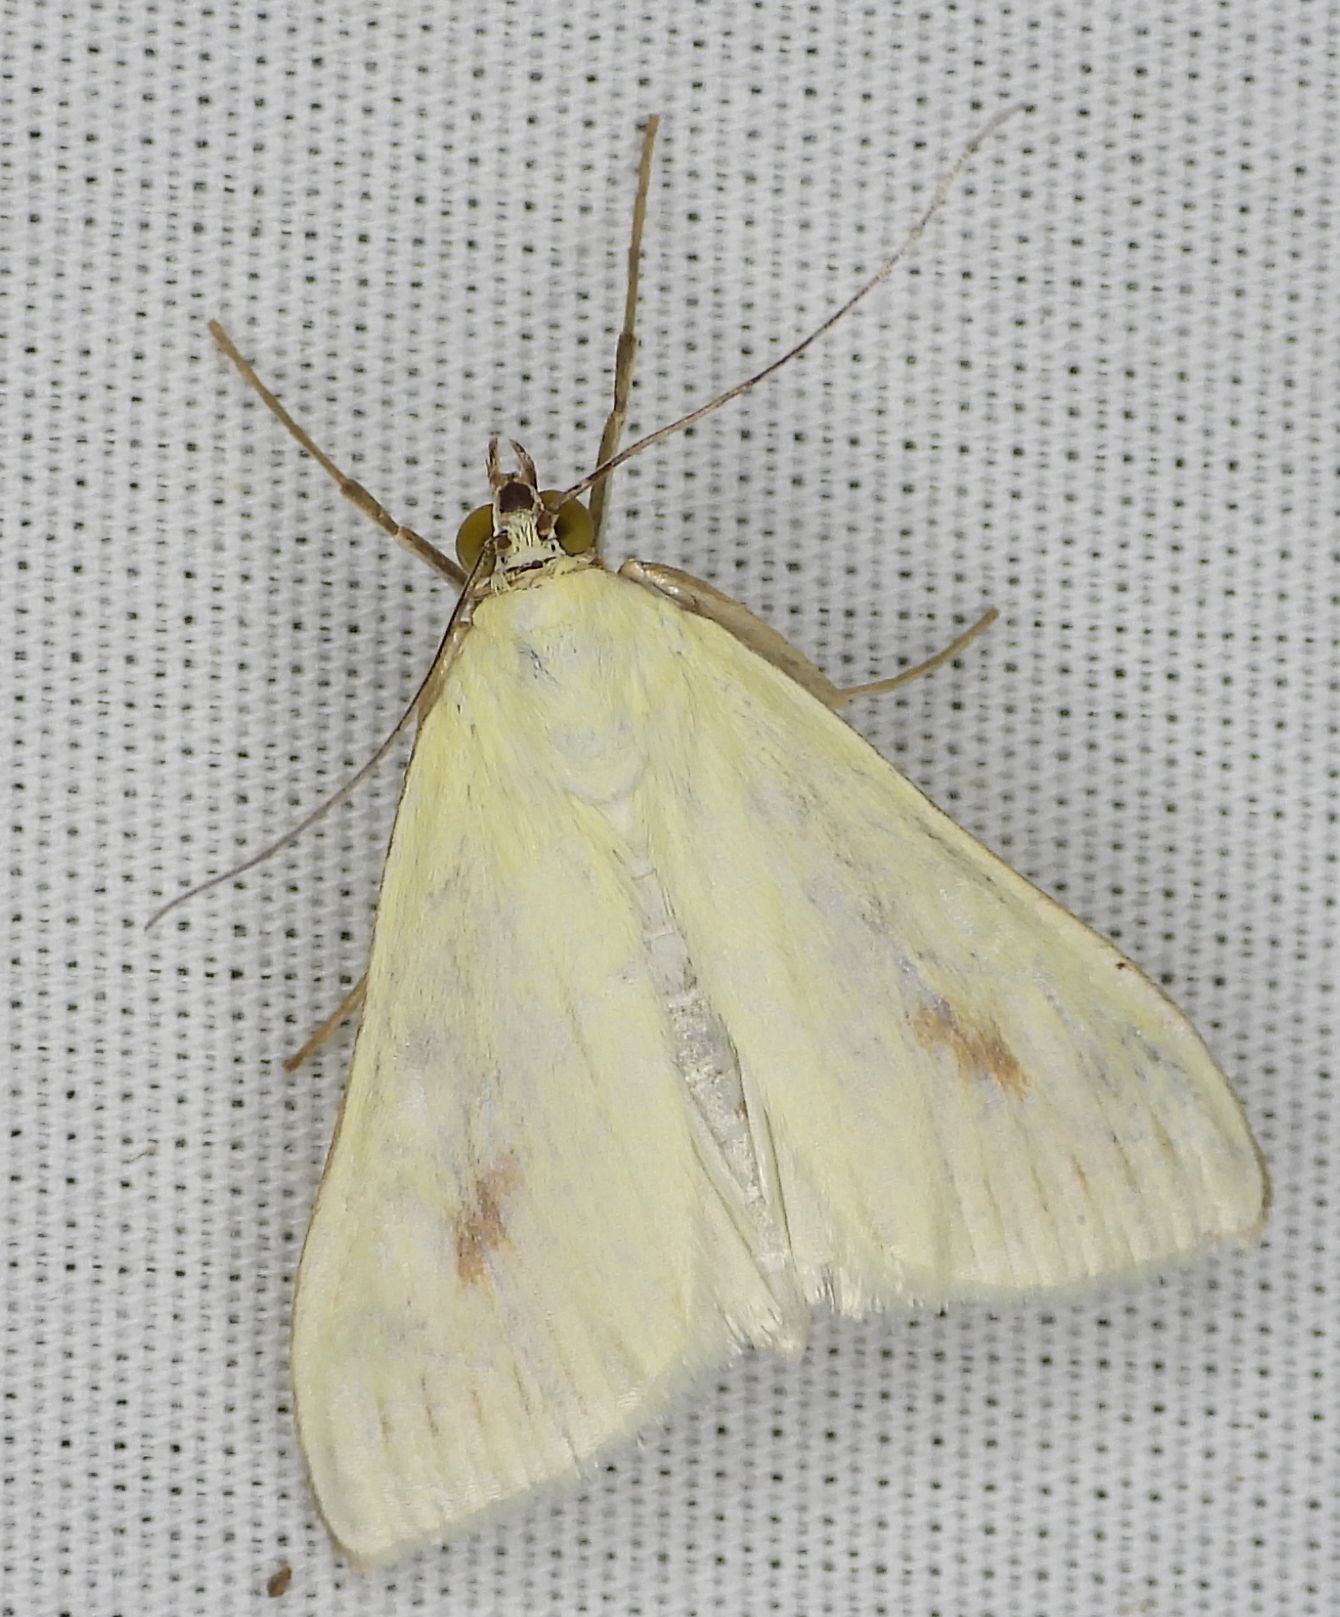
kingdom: Animalia
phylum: Arthropoda
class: Insecta
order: Lepidoptera
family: Crambidae
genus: Sitochroa
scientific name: Sitochroa palealis
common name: Greenish-yellow sitochroa moth
